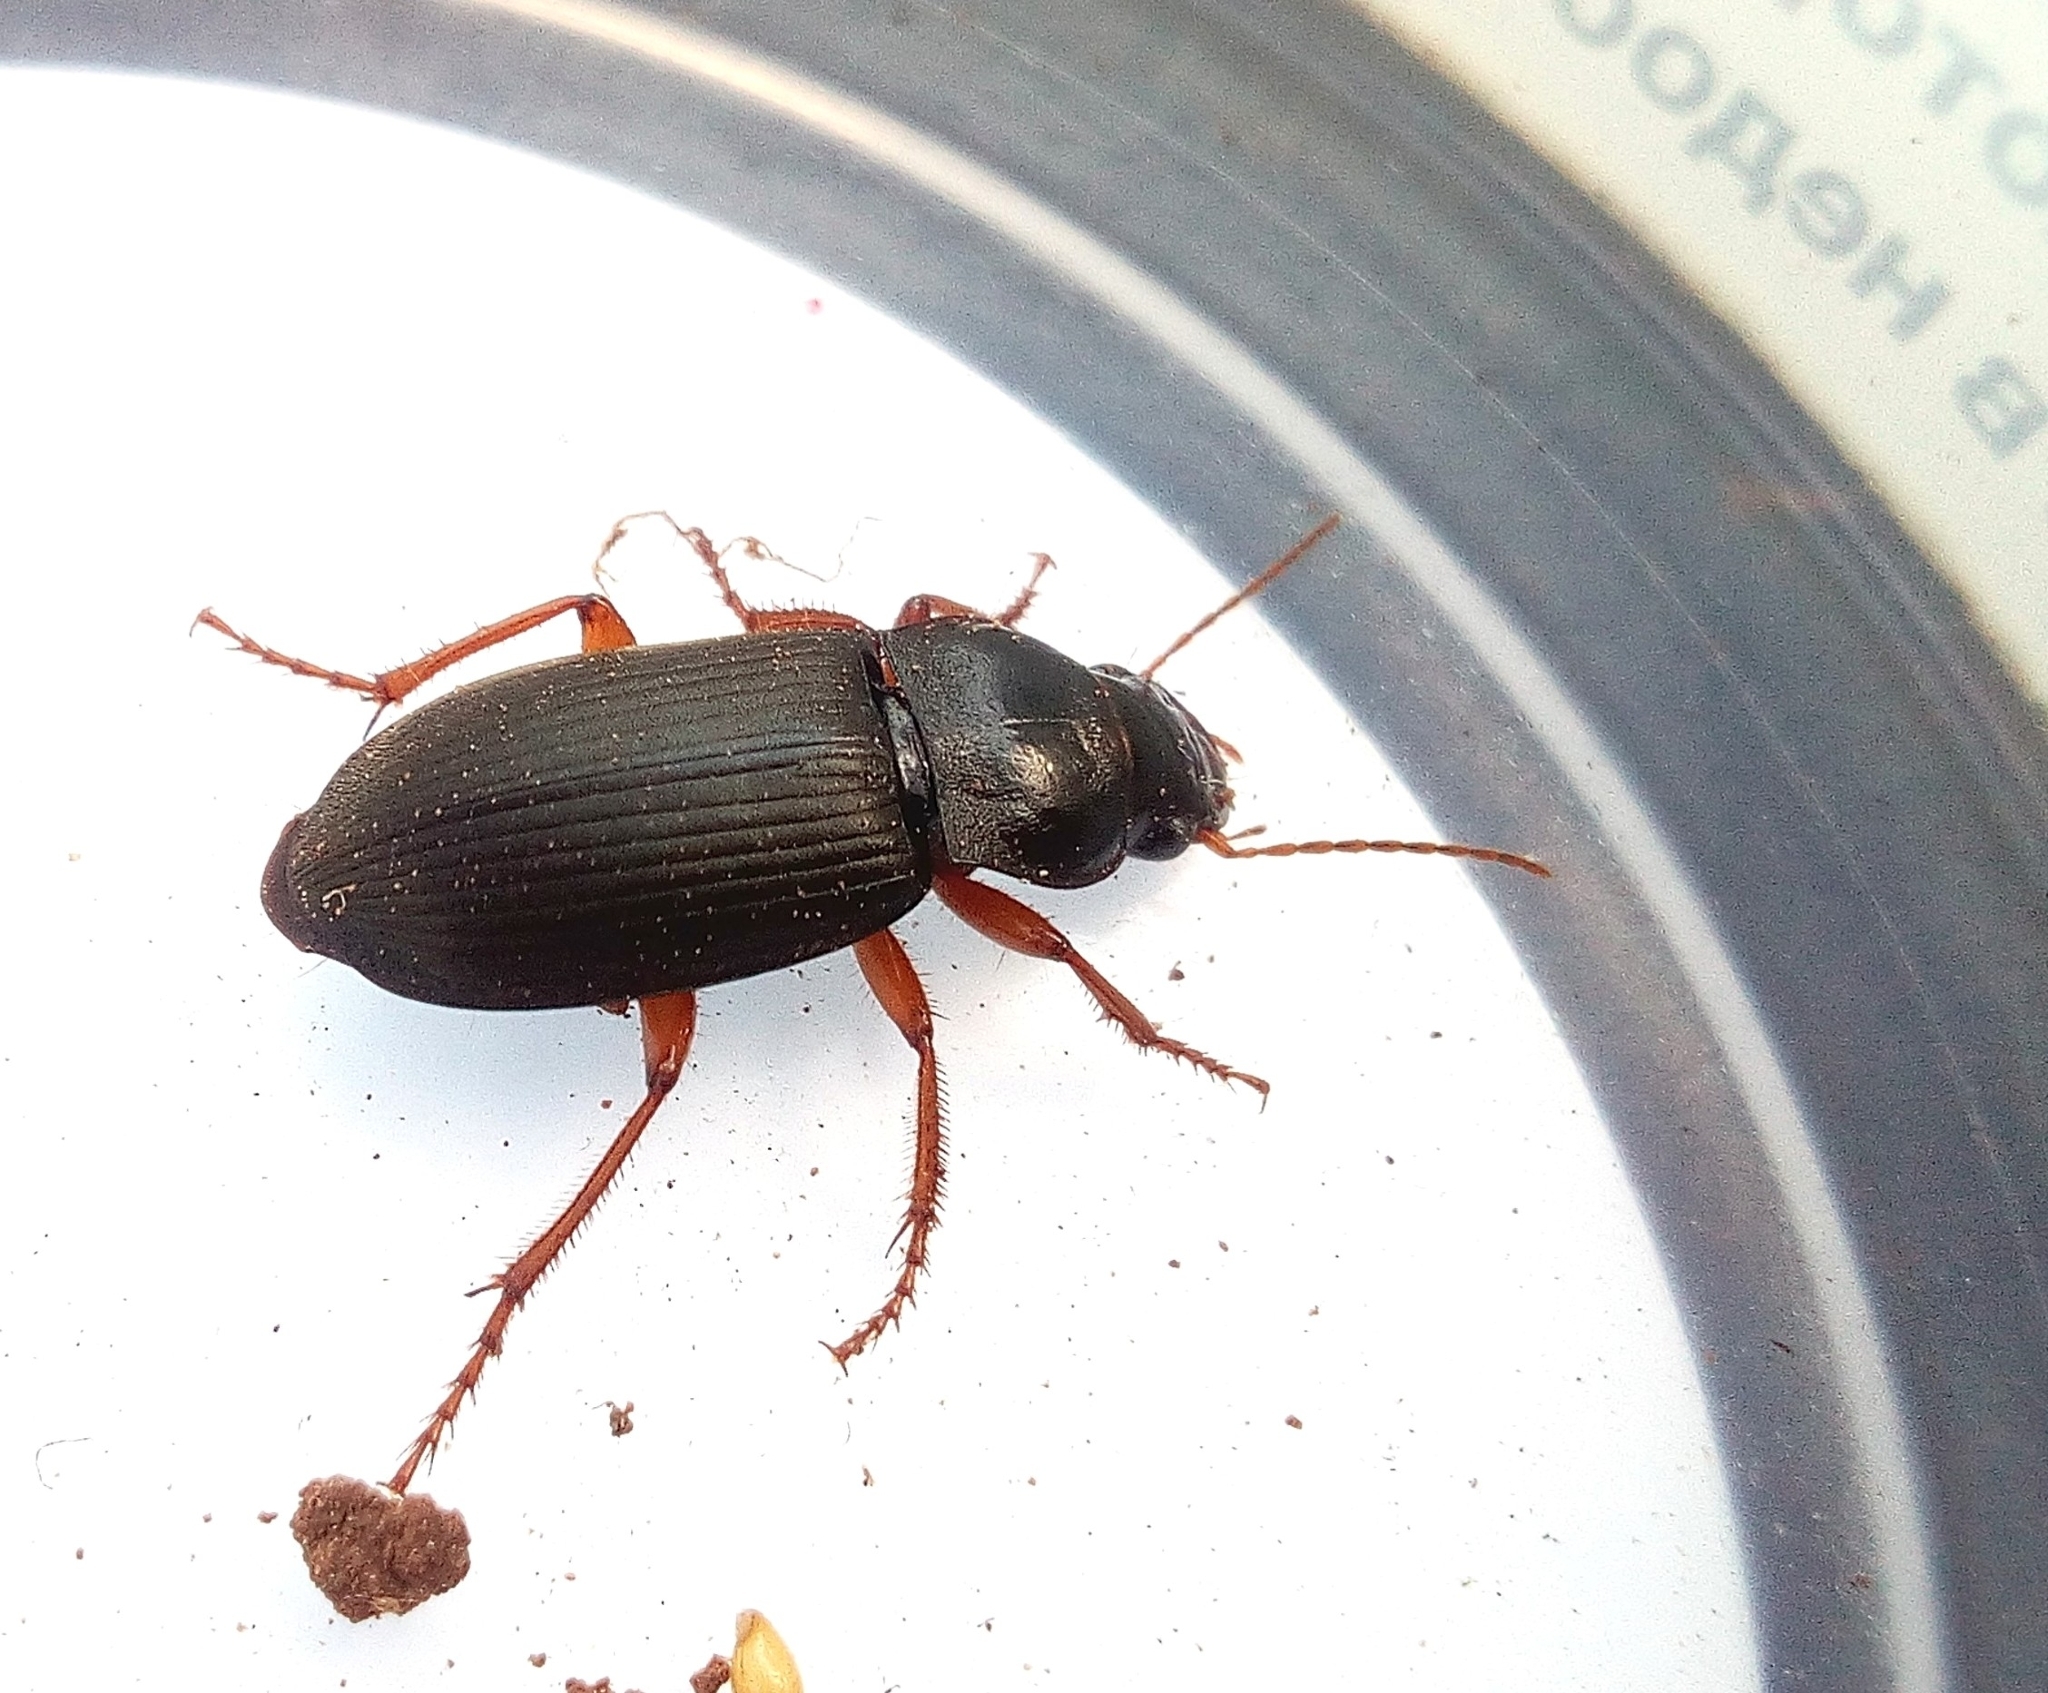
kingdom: Animalia
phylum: Arthropoda
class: Insecta
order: Coleoptera
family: Carabidae
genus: Harpalus
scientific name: Harpalus rufipes
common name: Strawberry harp ground beetle
